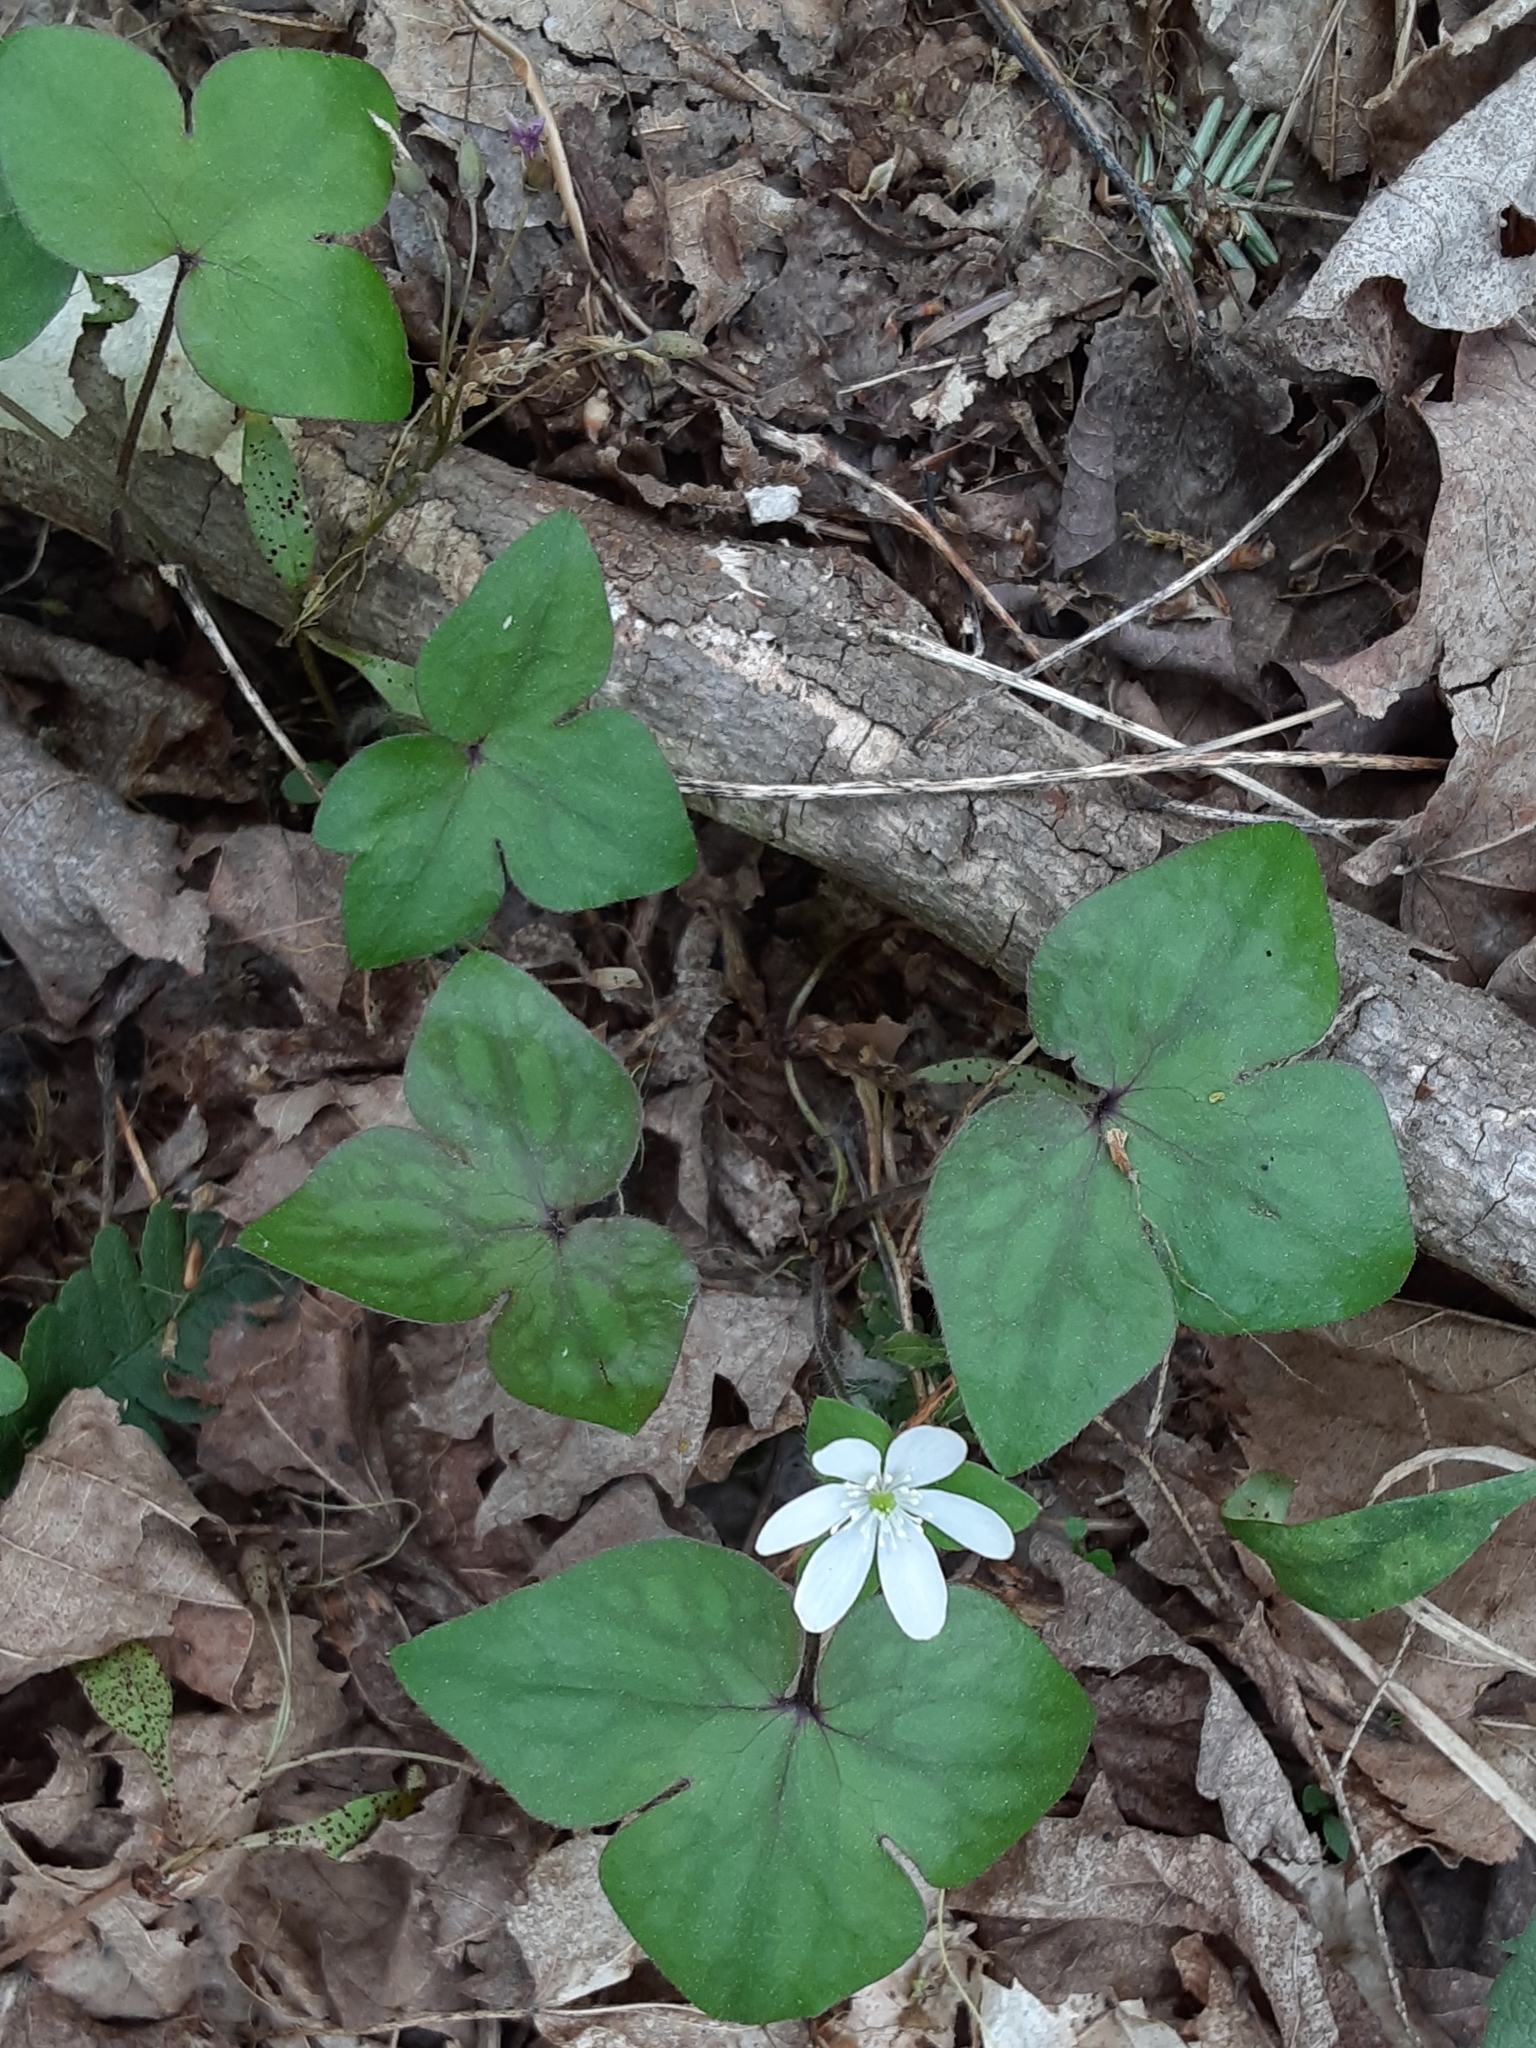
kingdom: Plantae
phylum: Tracheophyta
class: Magnoliopsida
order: Ranunculales
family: Ranunculaceae
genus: Hepatica
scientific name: Hepatica acutiloba
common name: Sharp-lobed hepatica
